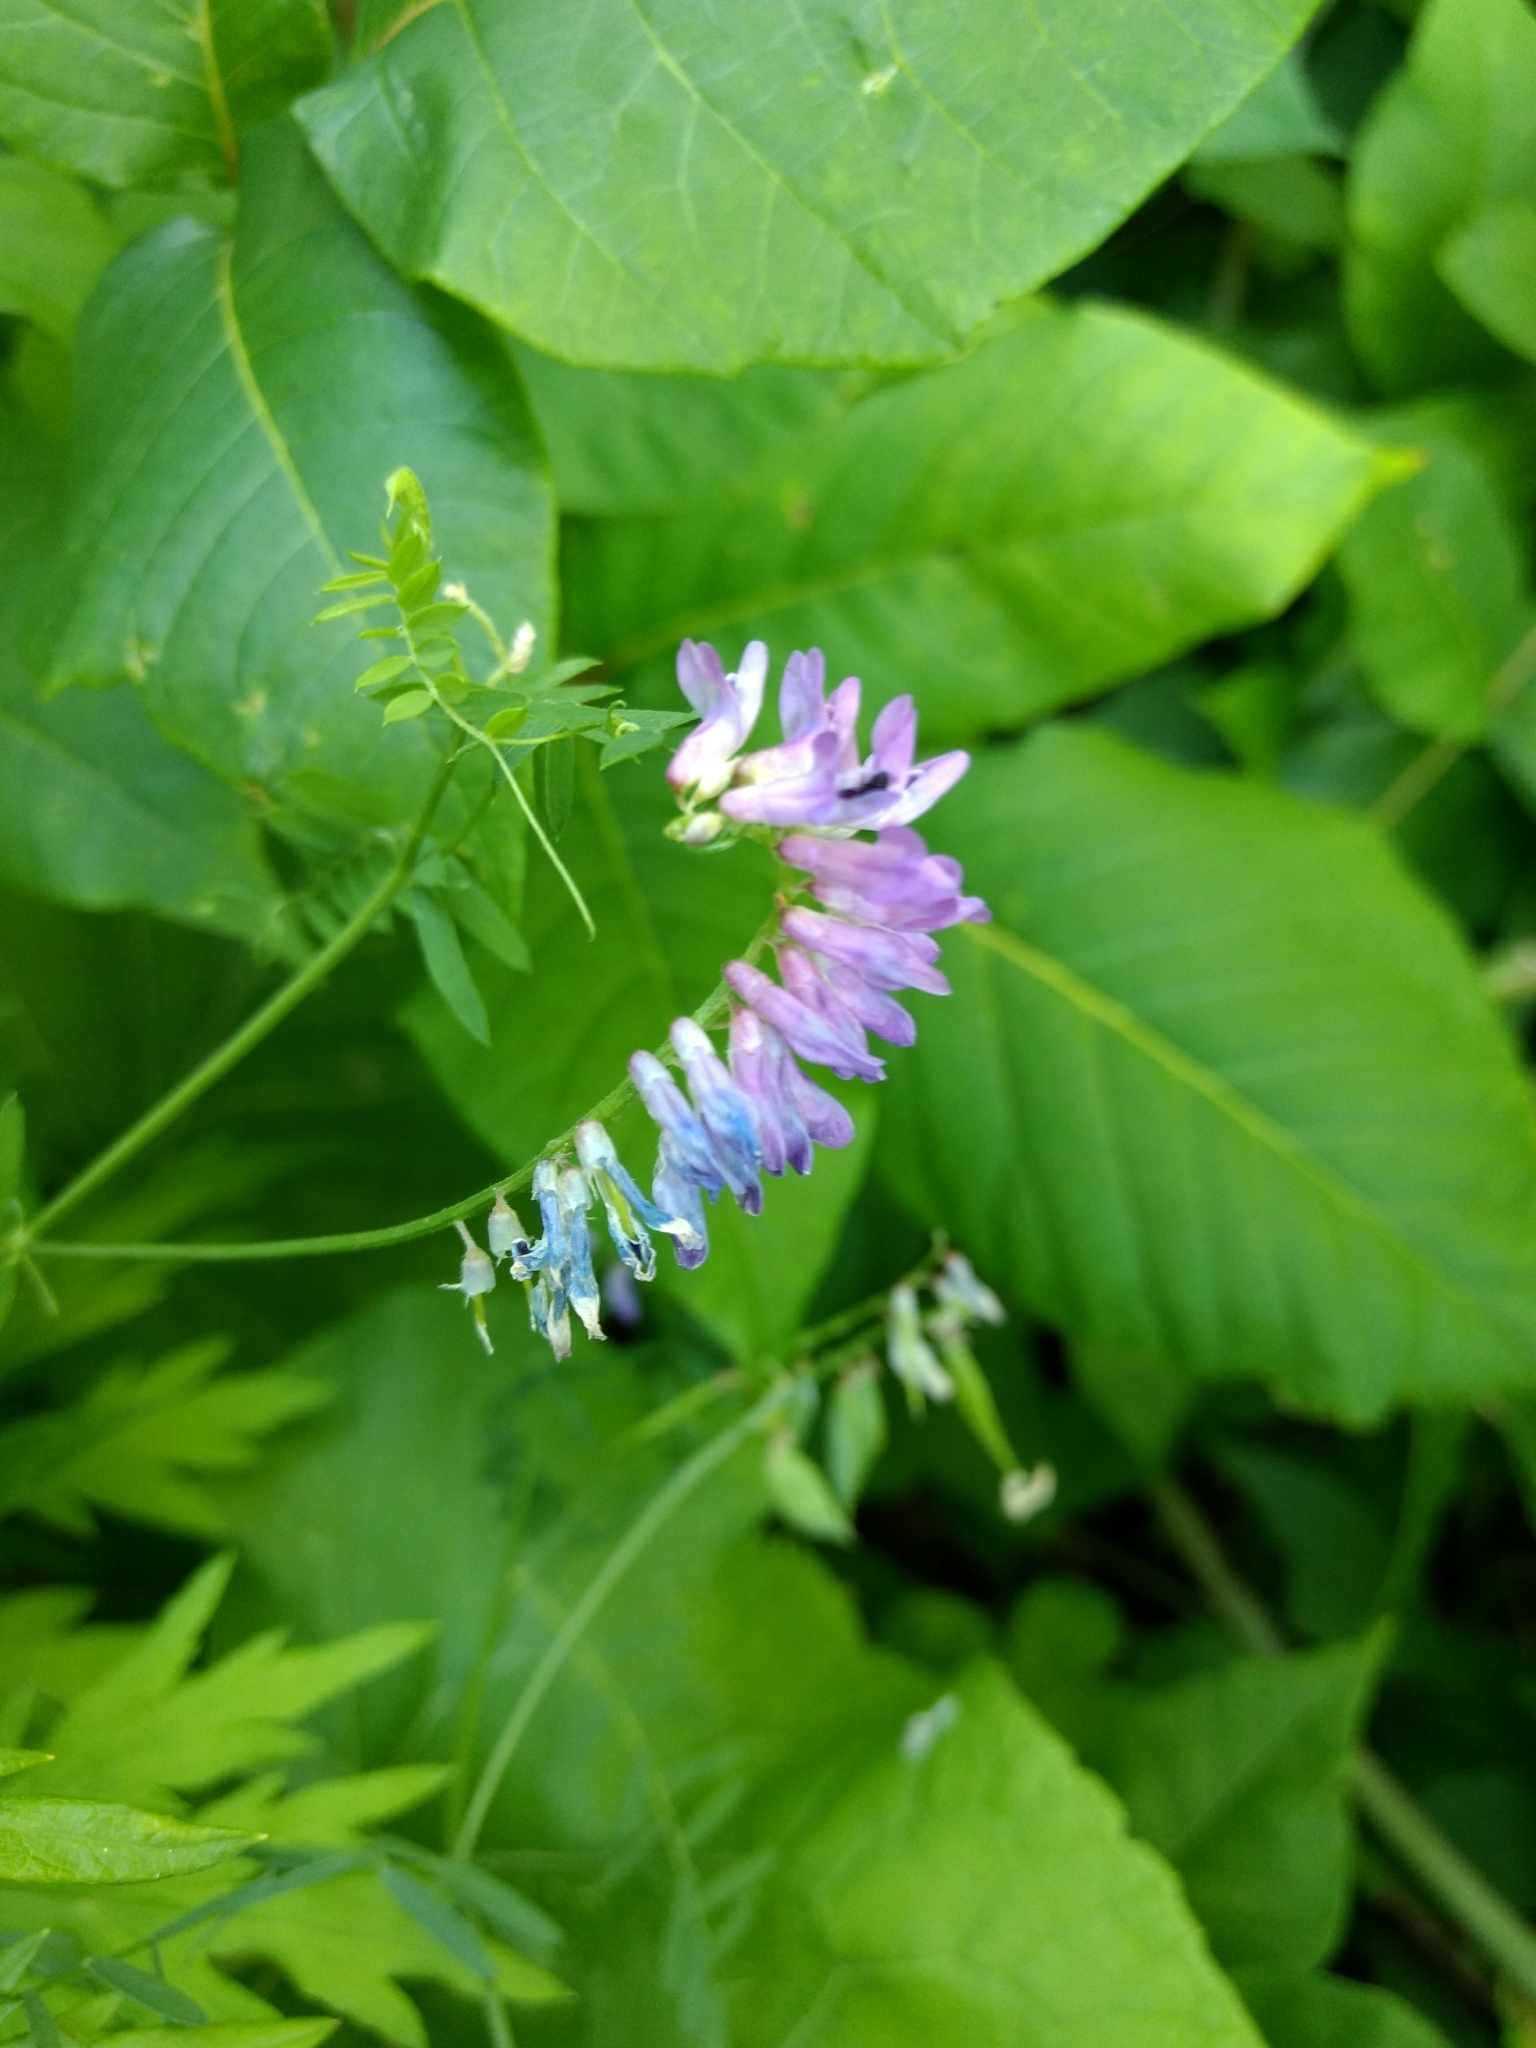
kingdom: Plantae
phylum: Tracheophyta
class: Magnoliopsida
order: Fabales
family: Fabaceae
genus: Vicia
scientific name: Vicia cracca
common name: Bird vetch
